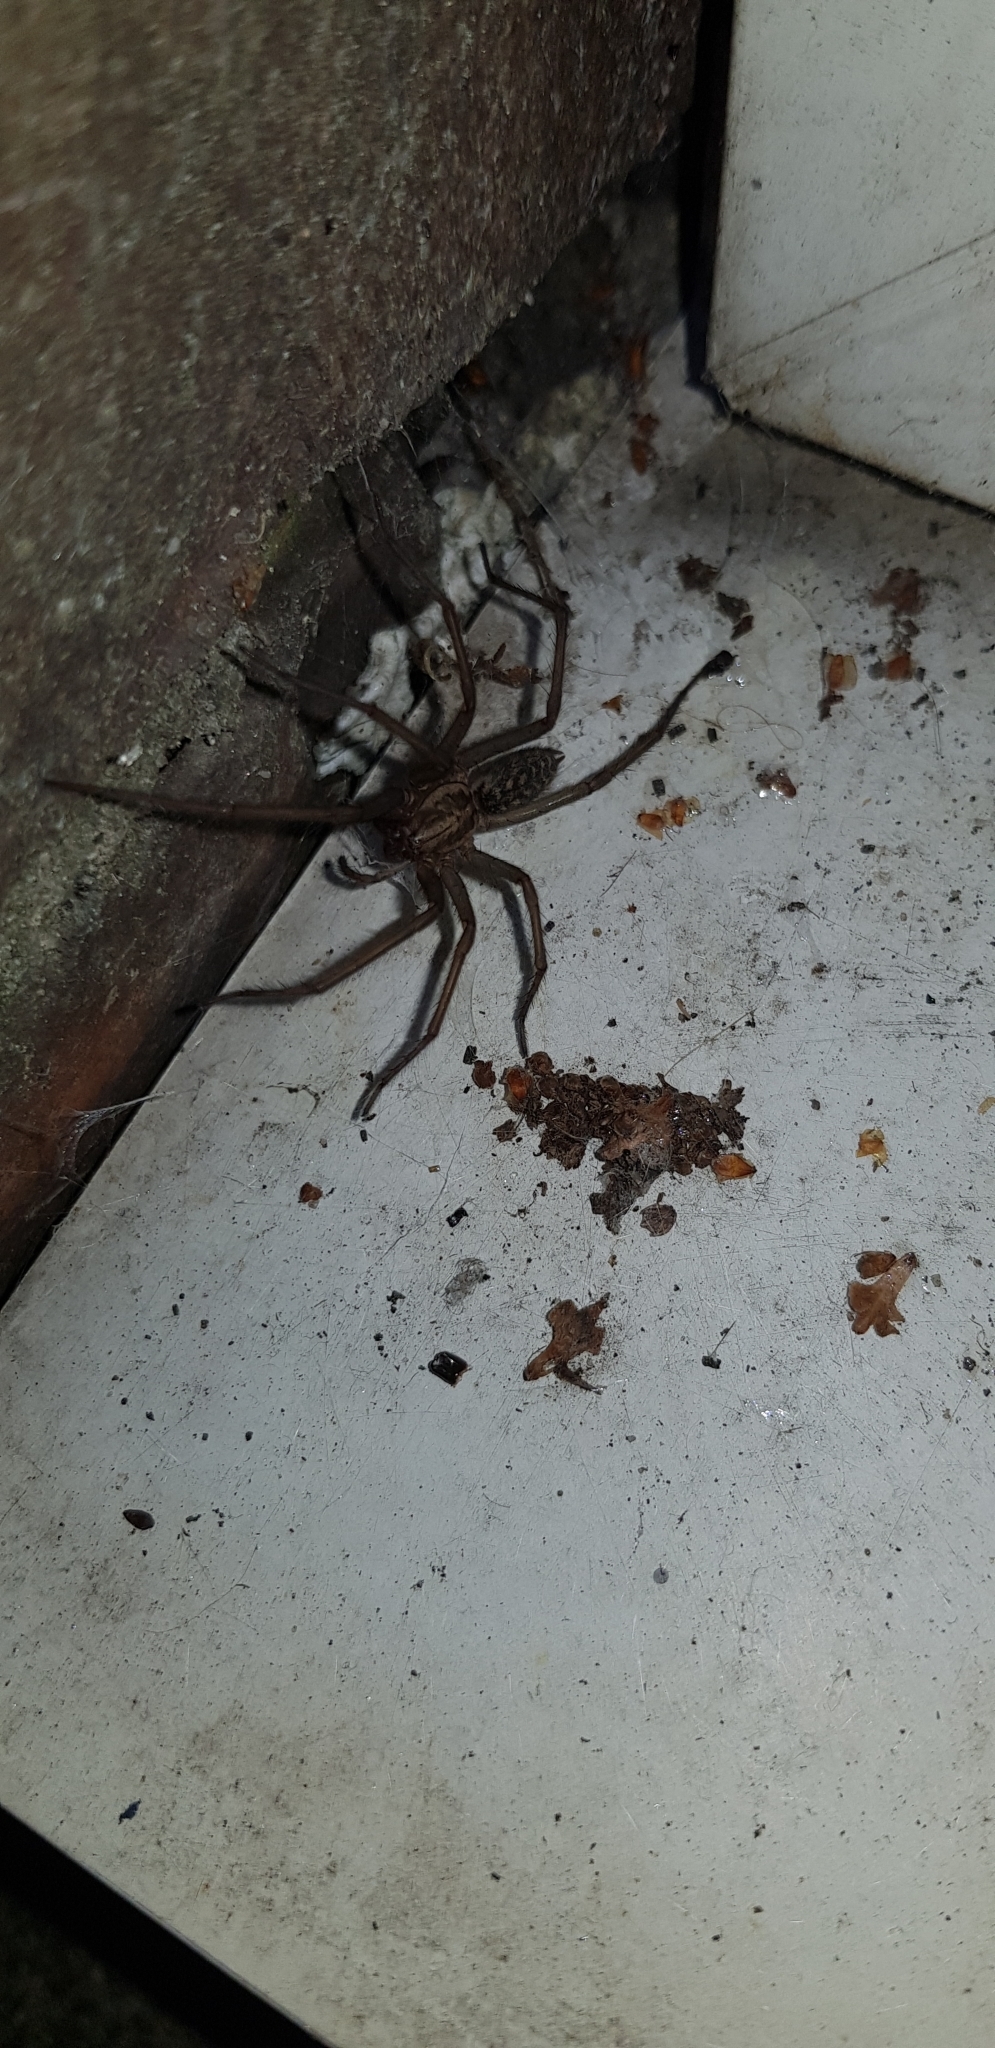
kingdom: Animalia
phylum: Arthropoda
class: Arachnida
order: Araneae
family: Agelenidae
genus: Eratigena
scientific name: Eratigena atrica
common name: Giant house spider
